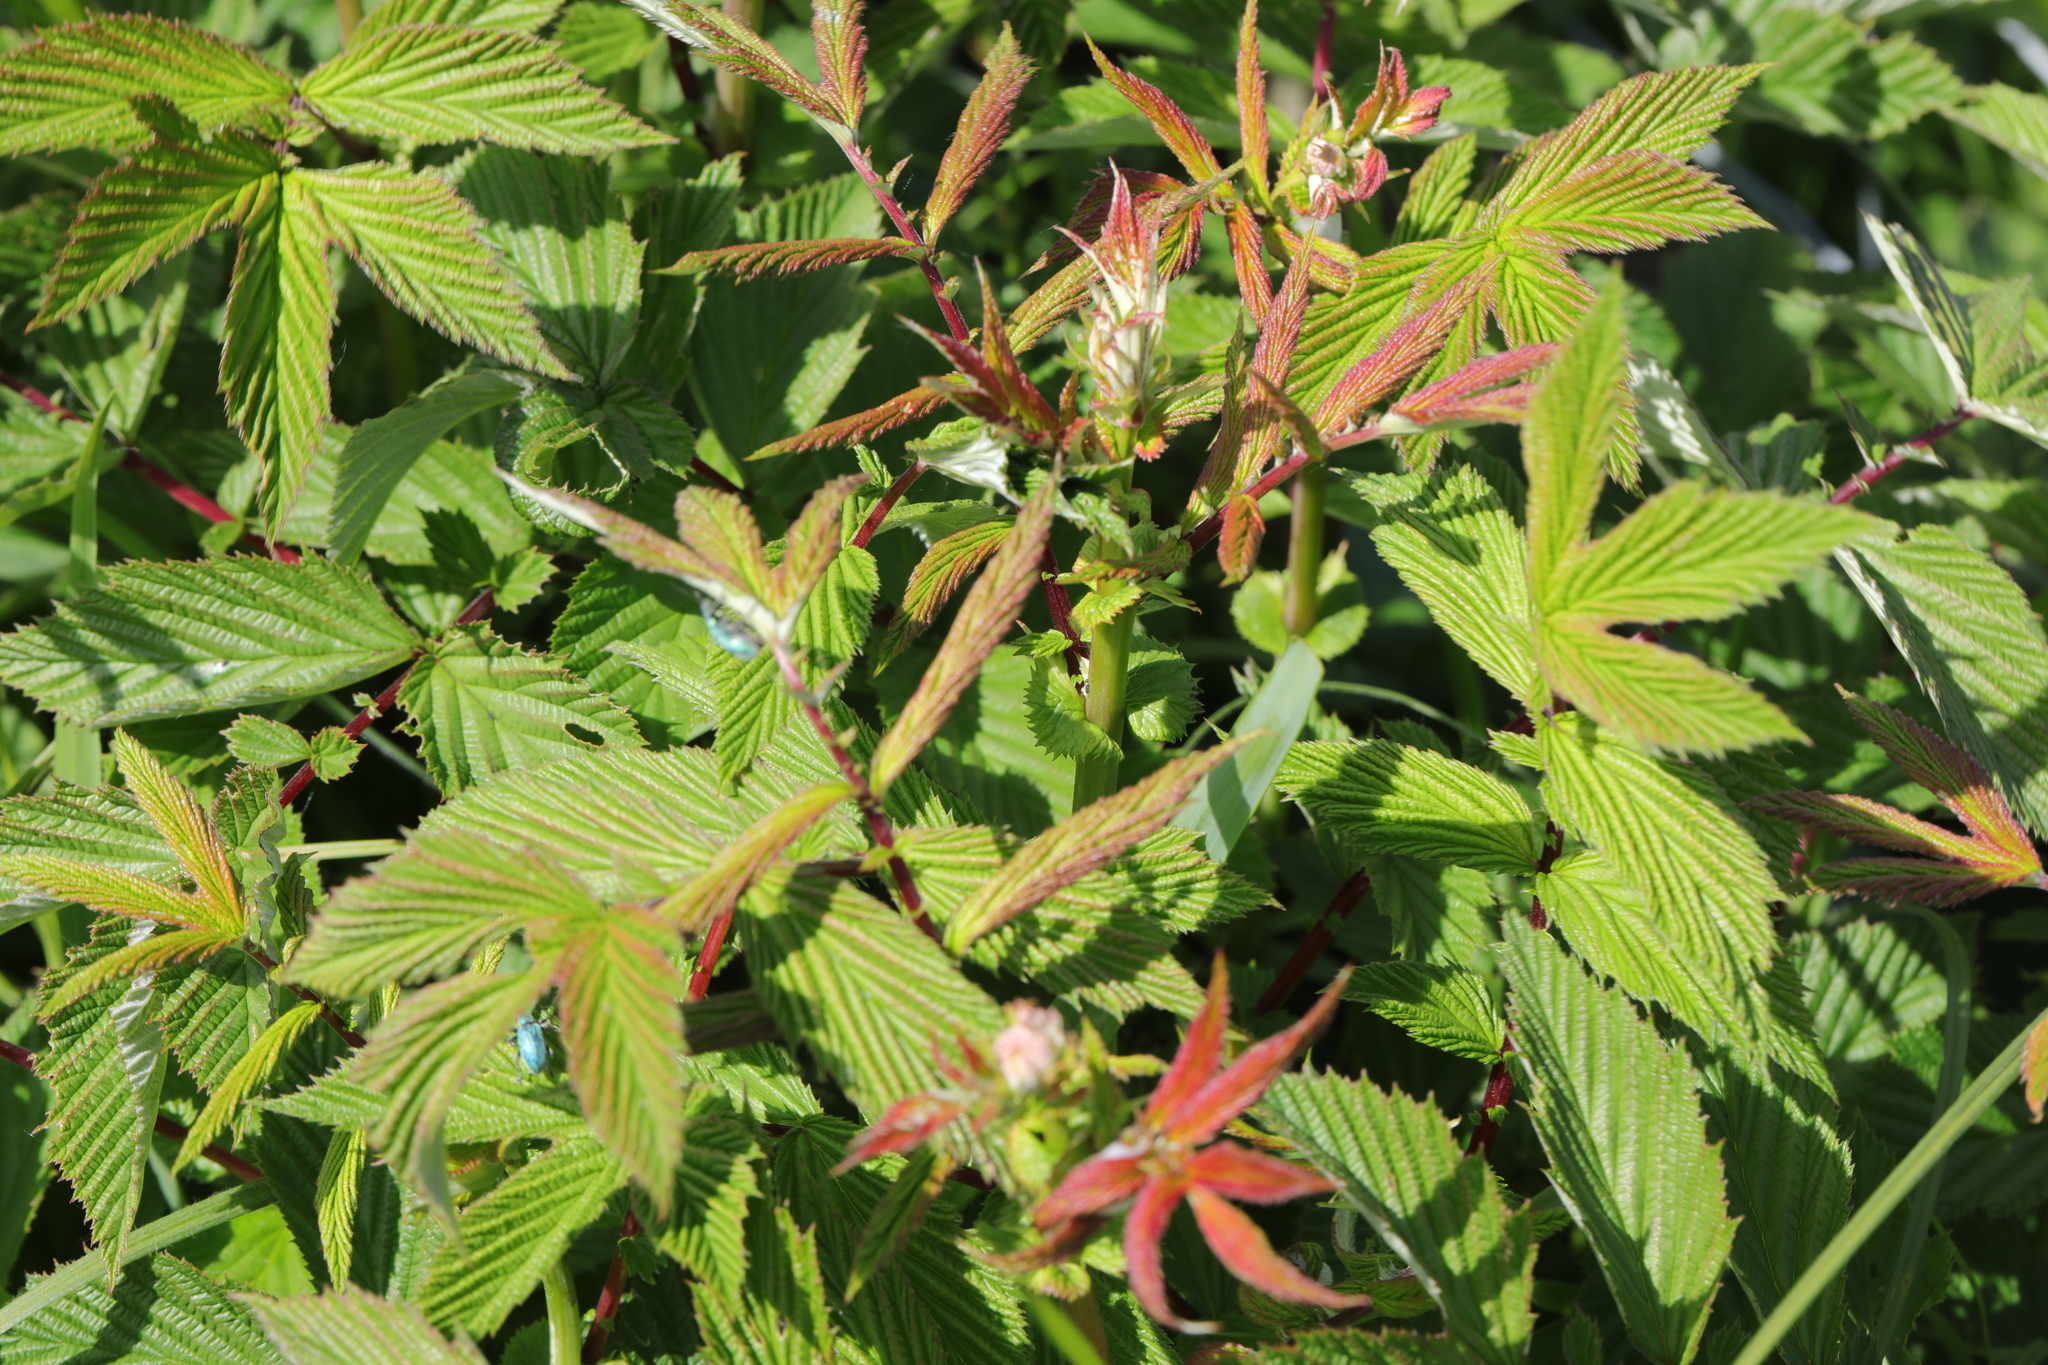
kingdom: Plantae
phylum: Tracheophyta
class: Magnoliopsida
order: Rosales
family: Rosaceae
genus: Filipendula
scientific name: Filipendula ulmaria
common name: Meadowsweet
